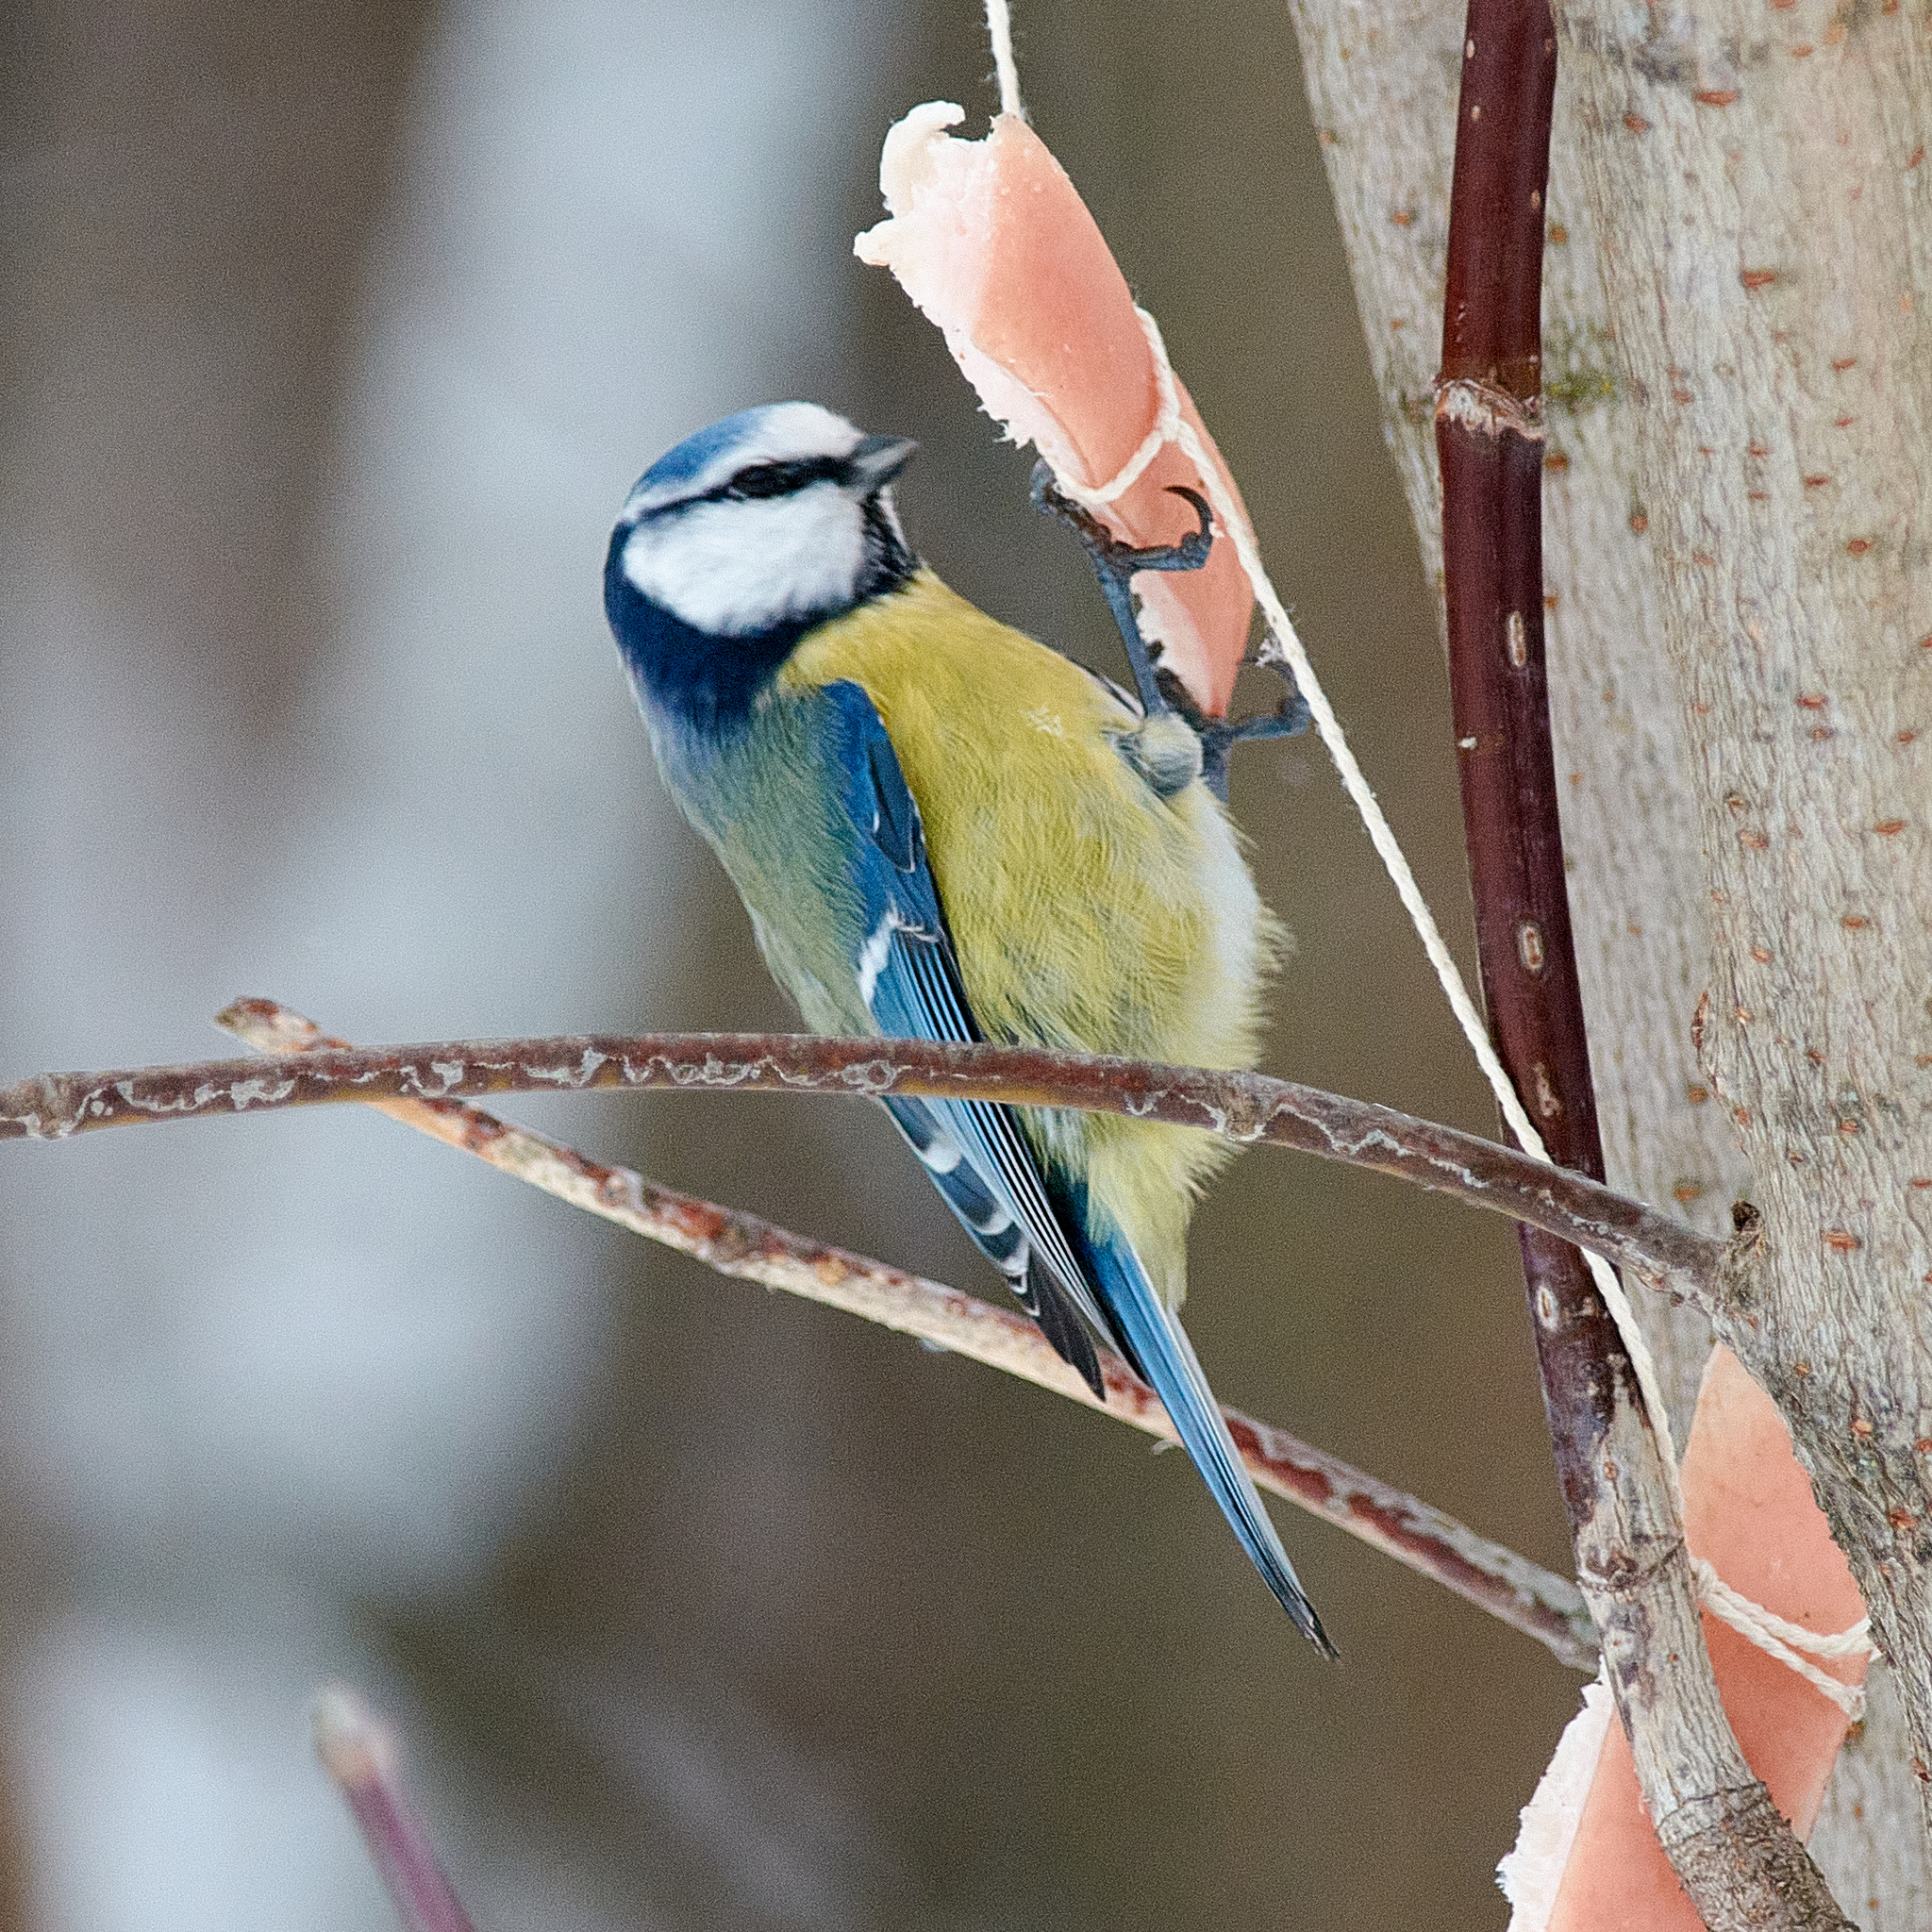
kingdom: Animalia
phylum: Chordata
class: Aves
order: Passeriformes
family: Paridae
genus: Cyanistes
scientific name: Cyanistes caeruleus
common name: Eurasian blue tit
